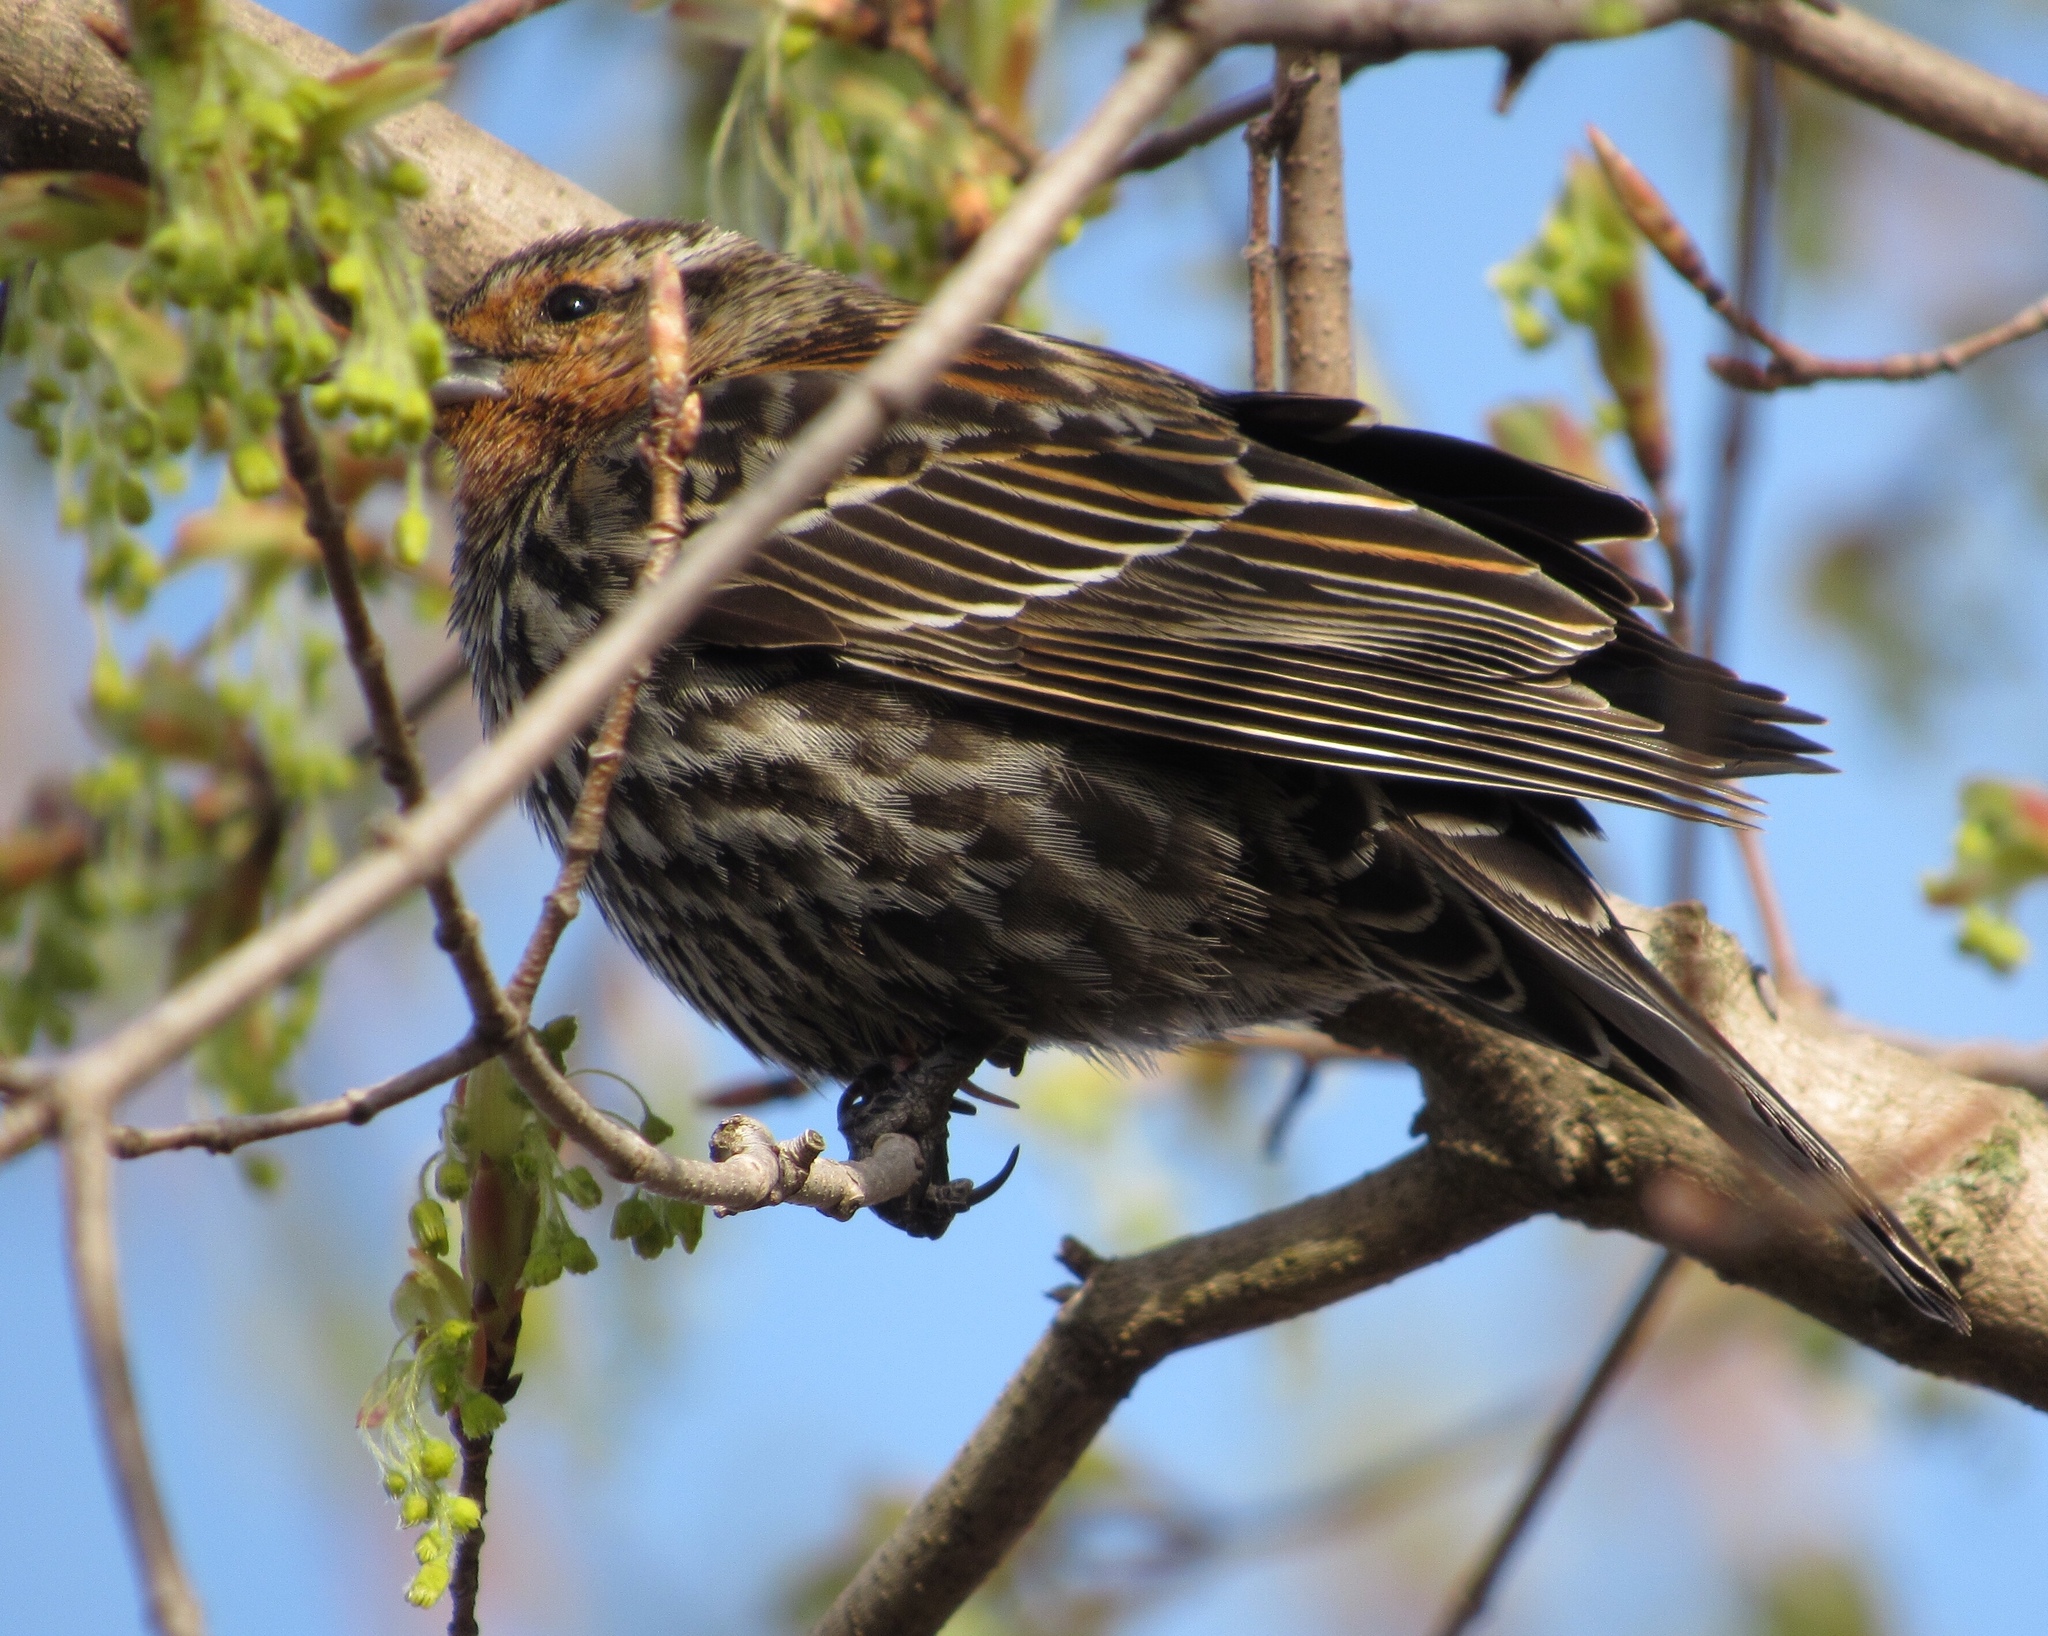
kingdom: Animalia
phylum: Chordata
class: Aves
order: Passeriformes
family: Icteridae
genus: Agelaius
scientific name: Agelaius phoeniceus
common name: Red-winged blackbird
